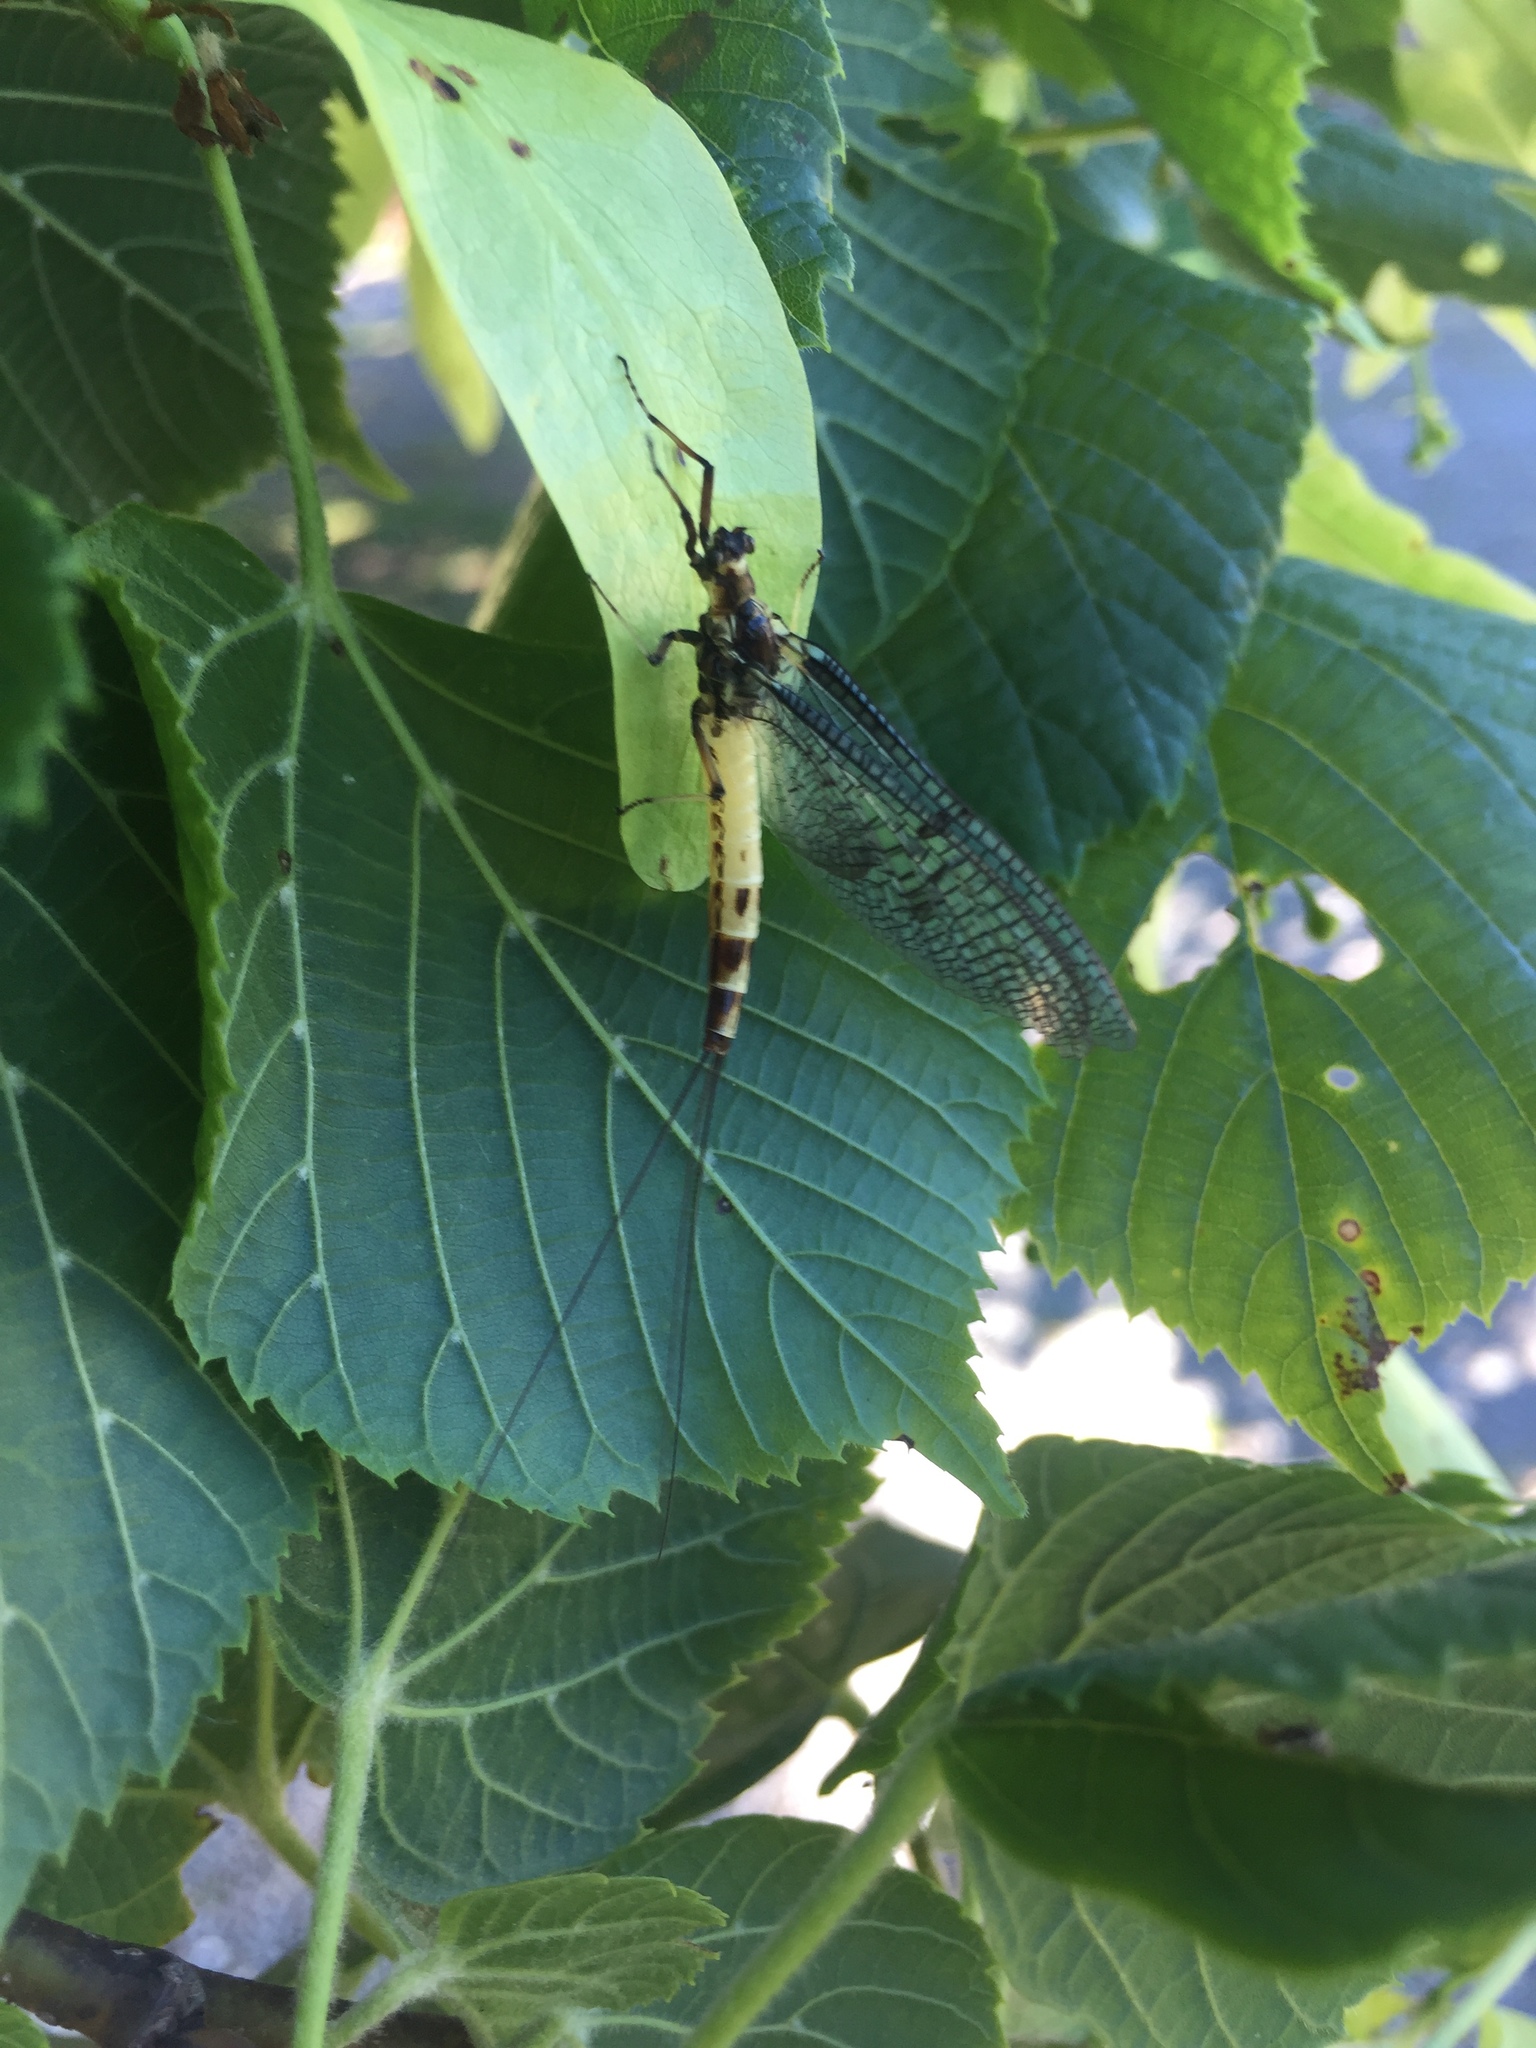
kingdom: Animalia
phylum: Arthropoda
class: Insecta
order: Ephemeroptera
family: Ephemeridae
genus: Ephemera
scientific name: Ephemera danica
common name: Green dun
